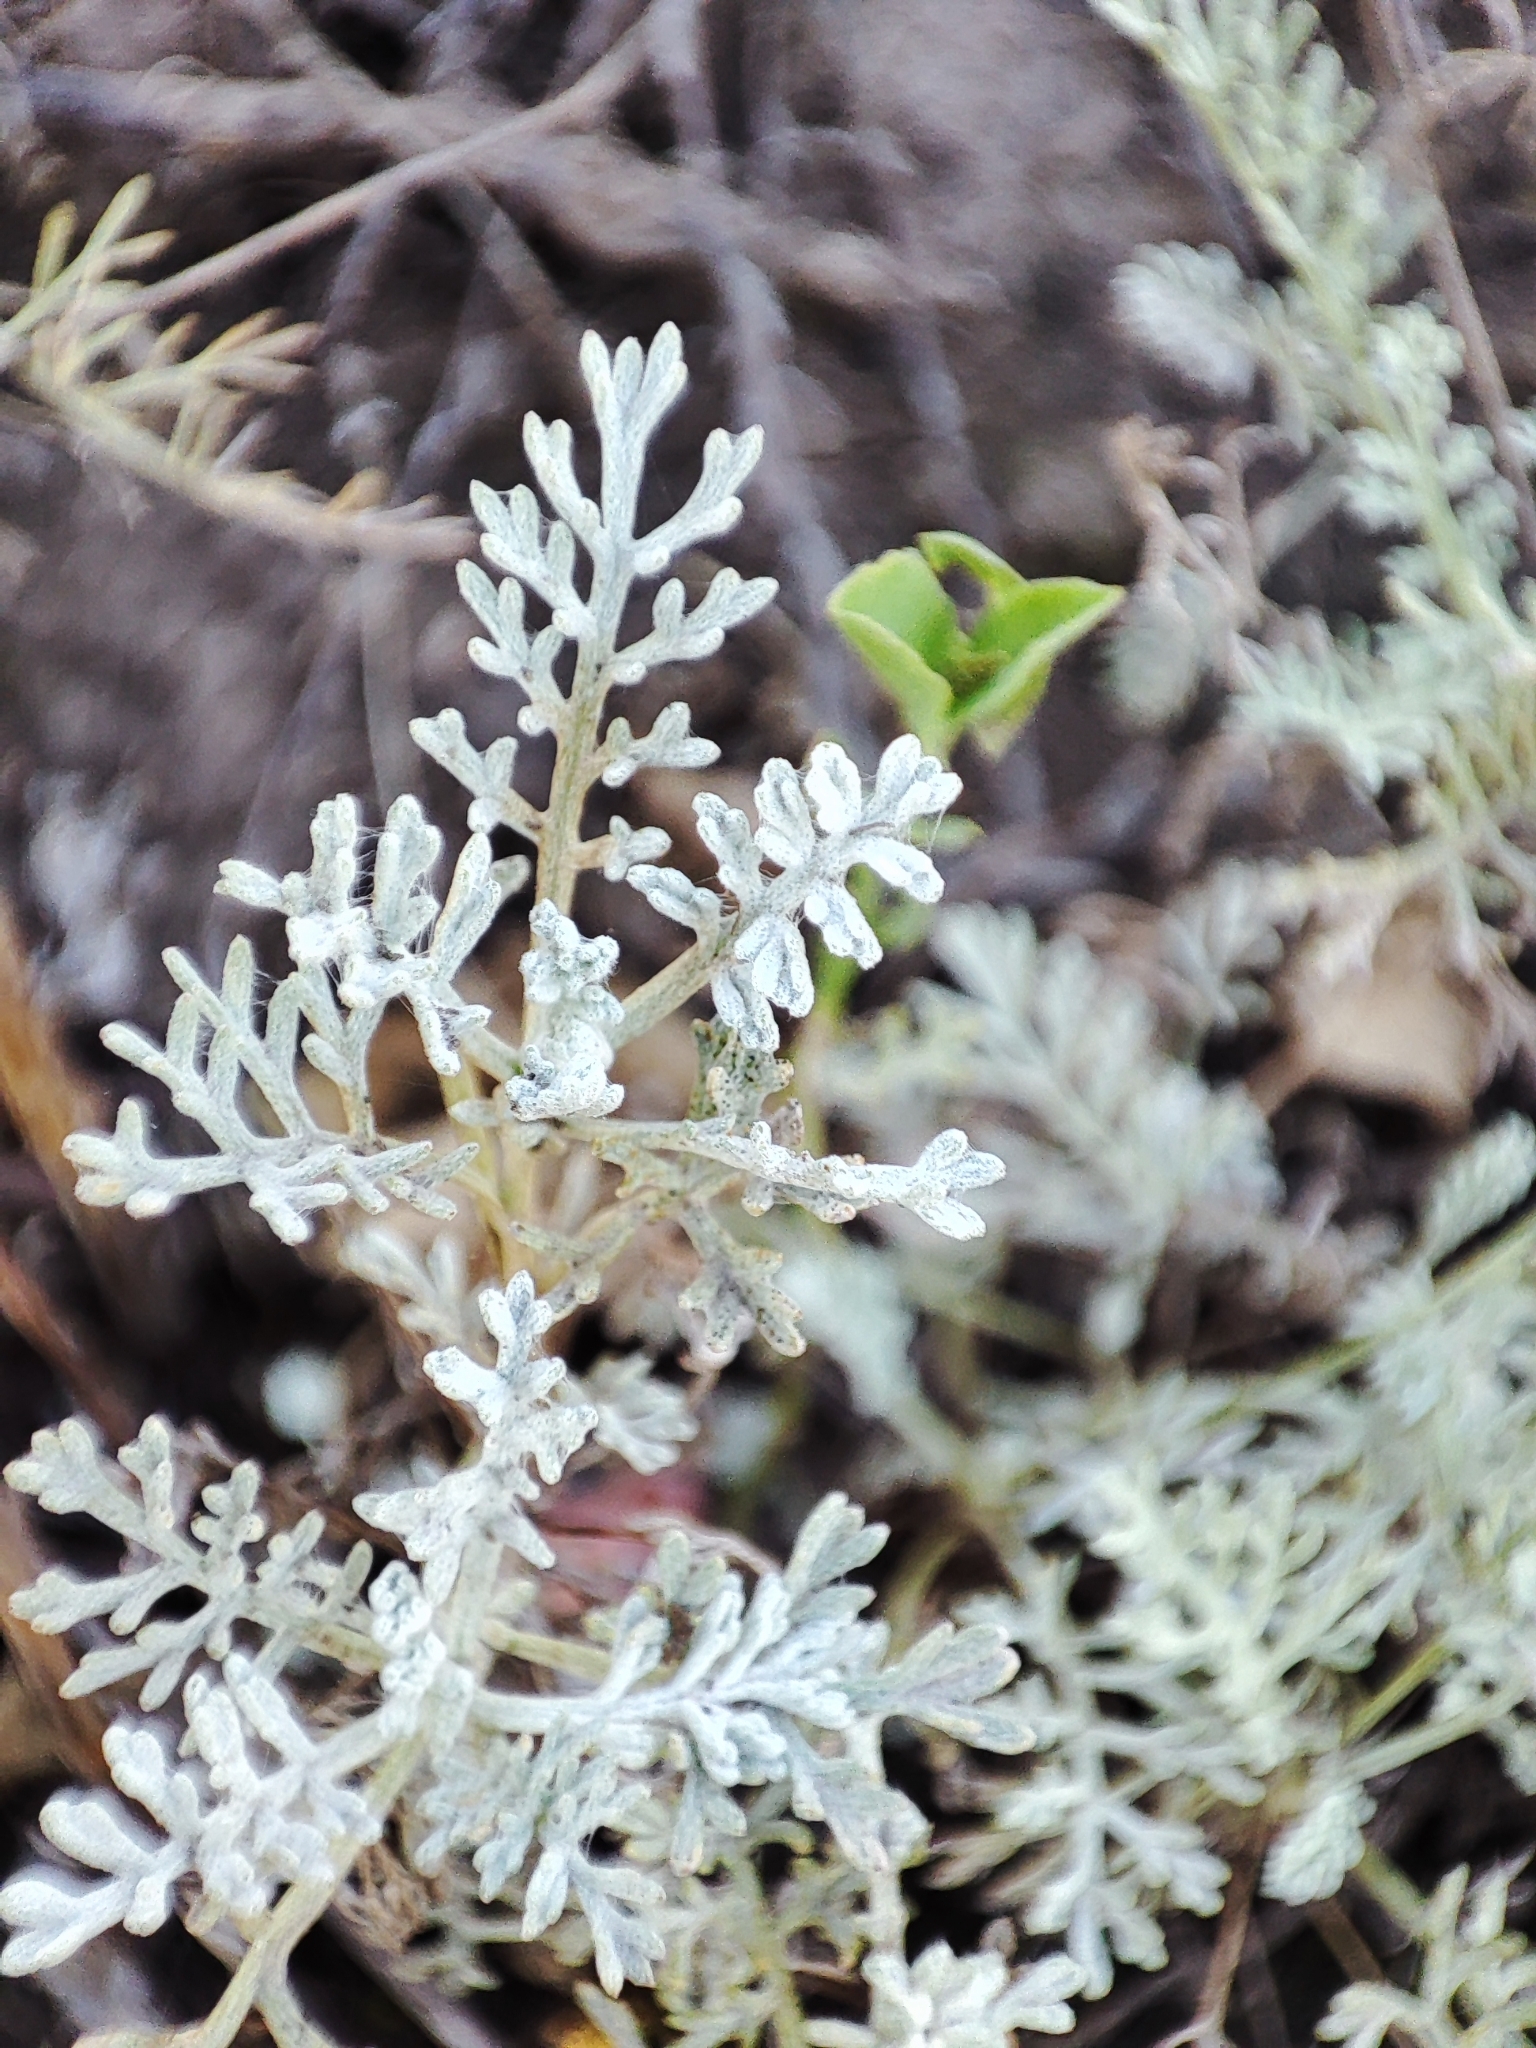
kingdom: Plantae
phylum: Tracheophyta
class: Magnoliopsida
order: Asterales
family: Asteraceae
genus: Artemisia
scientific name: Artemisia fragrans
